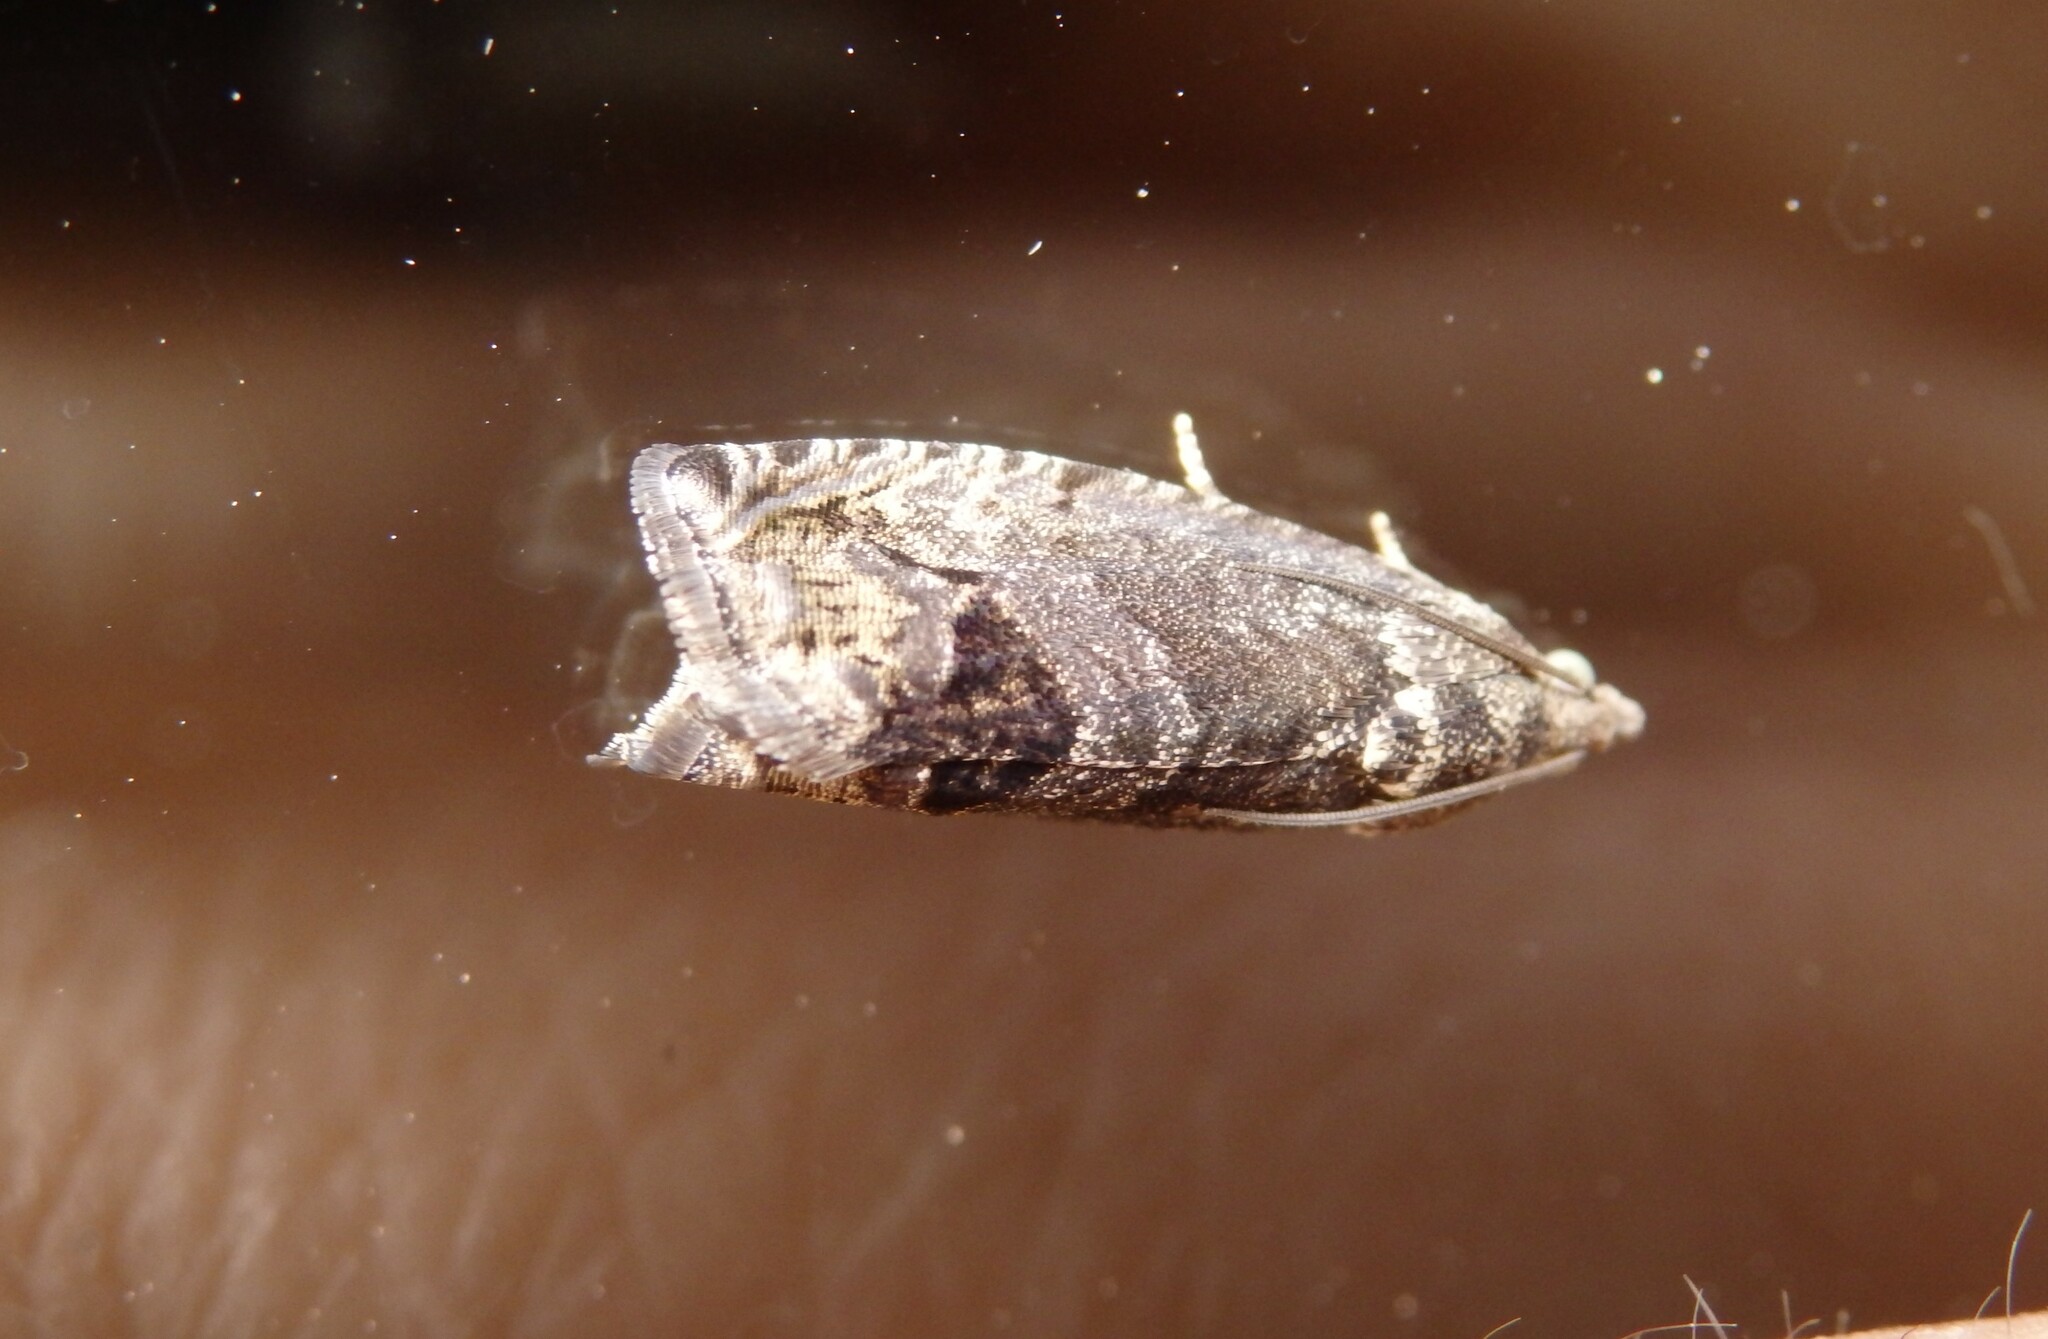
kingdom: Animalia
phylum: Arthropoda
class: Insecta
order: Lepidoptera
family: Tortricidae
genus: Cydia
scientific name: Cydia splendana
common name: De: kastanienwickler, eichenwickler es: oruga de la castaña fr: carpocapse des châtaignes it: cidia o tortrice tardiva delle castagne pt: bichado das castanhas gb: acorn moth, chestnut fruit tortrix
